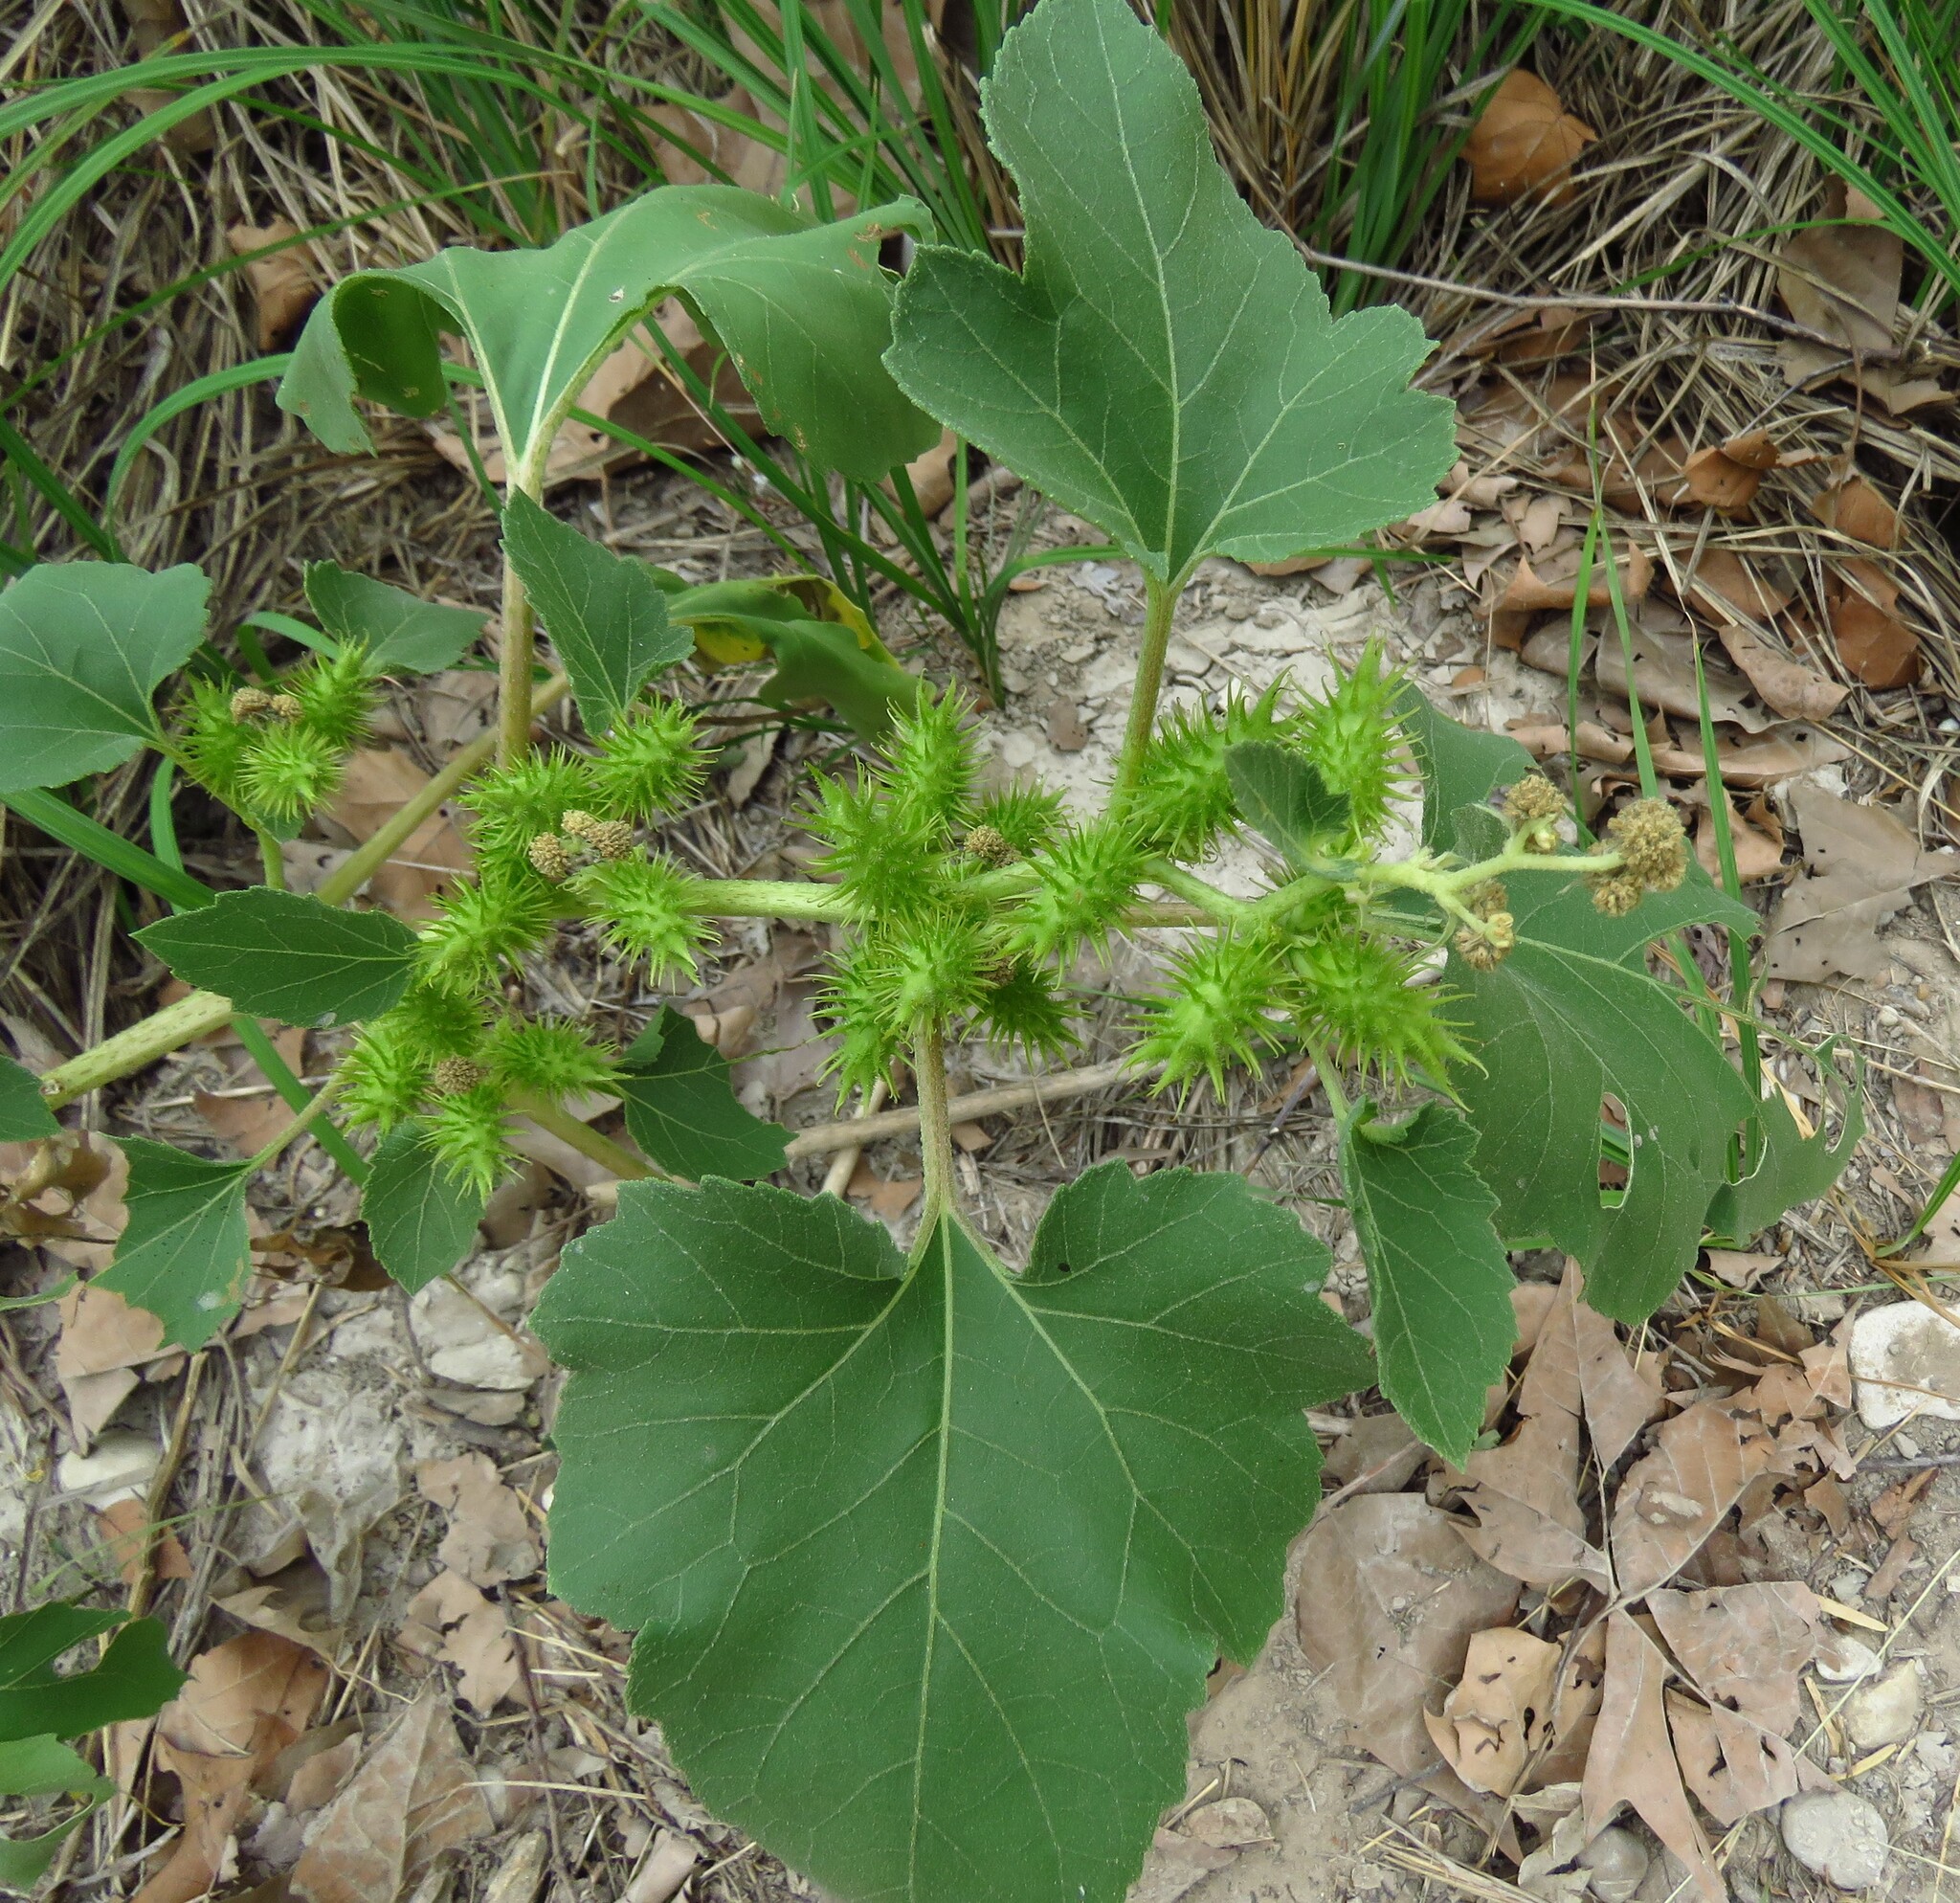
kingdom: Plantae
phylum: Tracheophyta
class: Magnoliopsida
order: Asterales
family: Asteraceae
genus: Xanthium
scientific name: Xanthium strumarium
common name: Rough cocklebur
